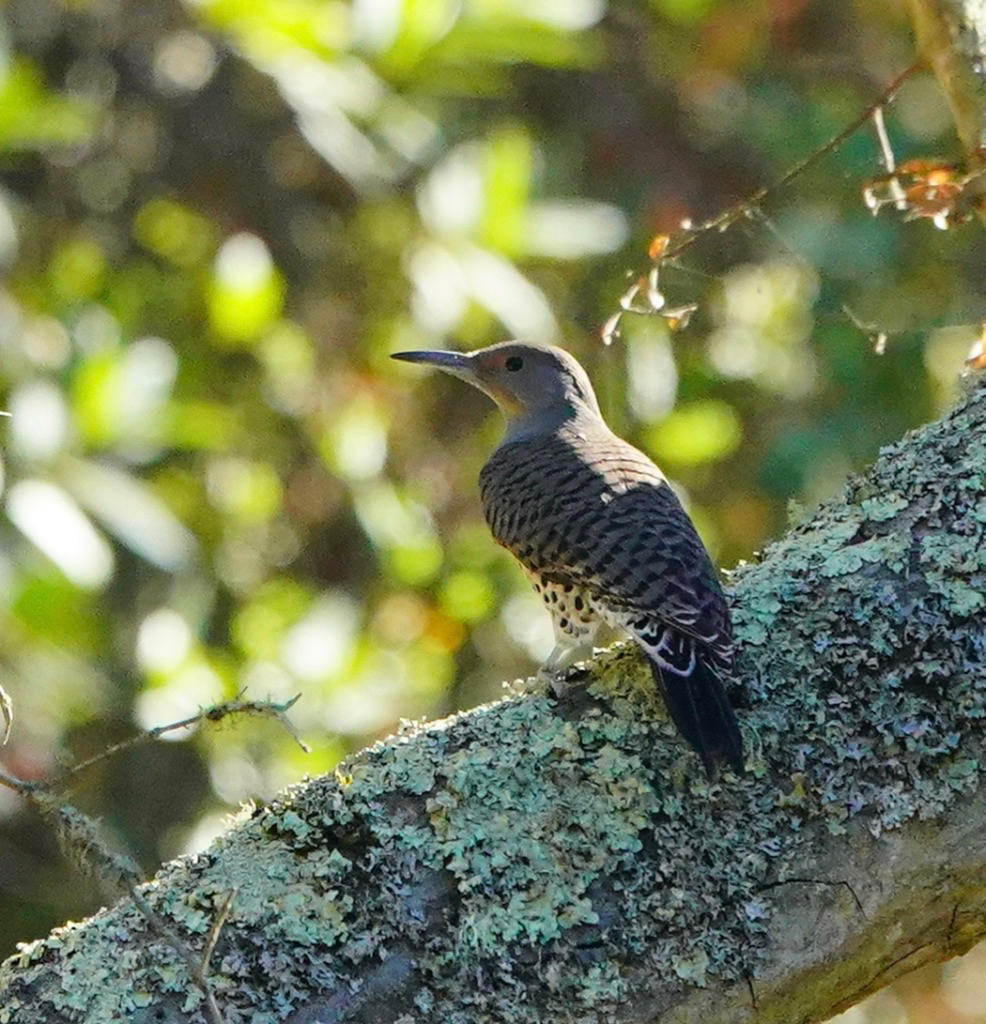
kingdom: Animalia
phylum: Chordata
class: Aves
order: Piciformes
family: Picidae
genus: Colaptes
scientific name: Colaptes auratus
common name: Northern flicker
